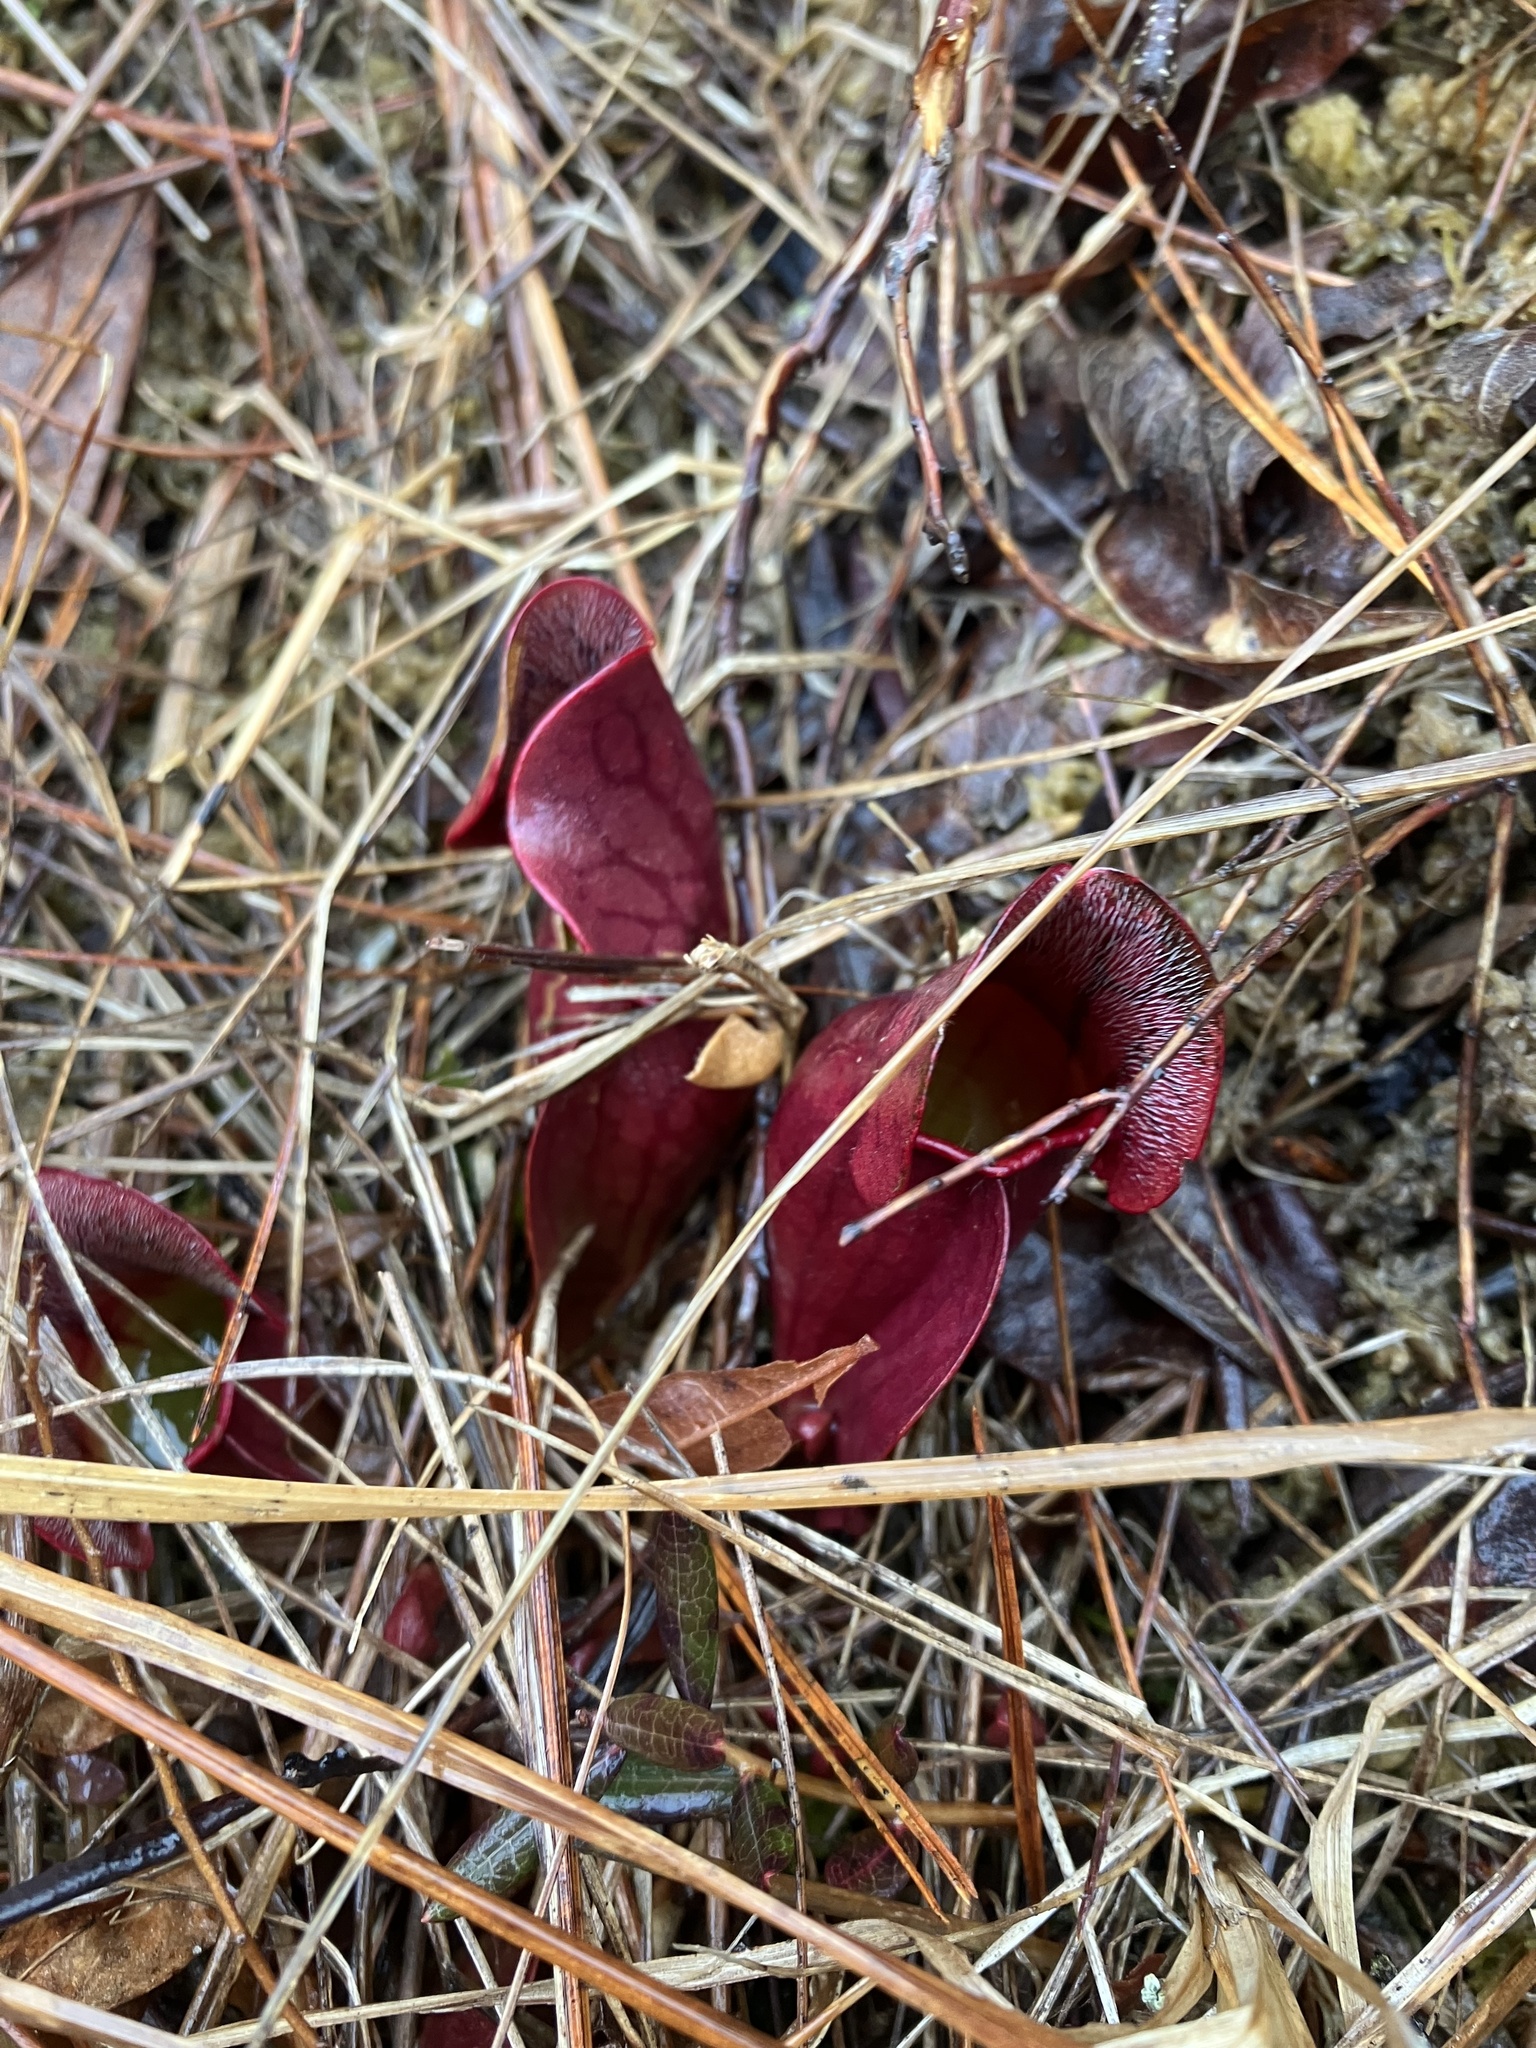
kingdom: Plantae
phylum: Tracheophyta
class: Magnoliopsida
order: Ericales
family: Sarraceniaceae
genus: Sarracenia
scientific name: Sarracenia purpurea
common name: Pitcherplant
